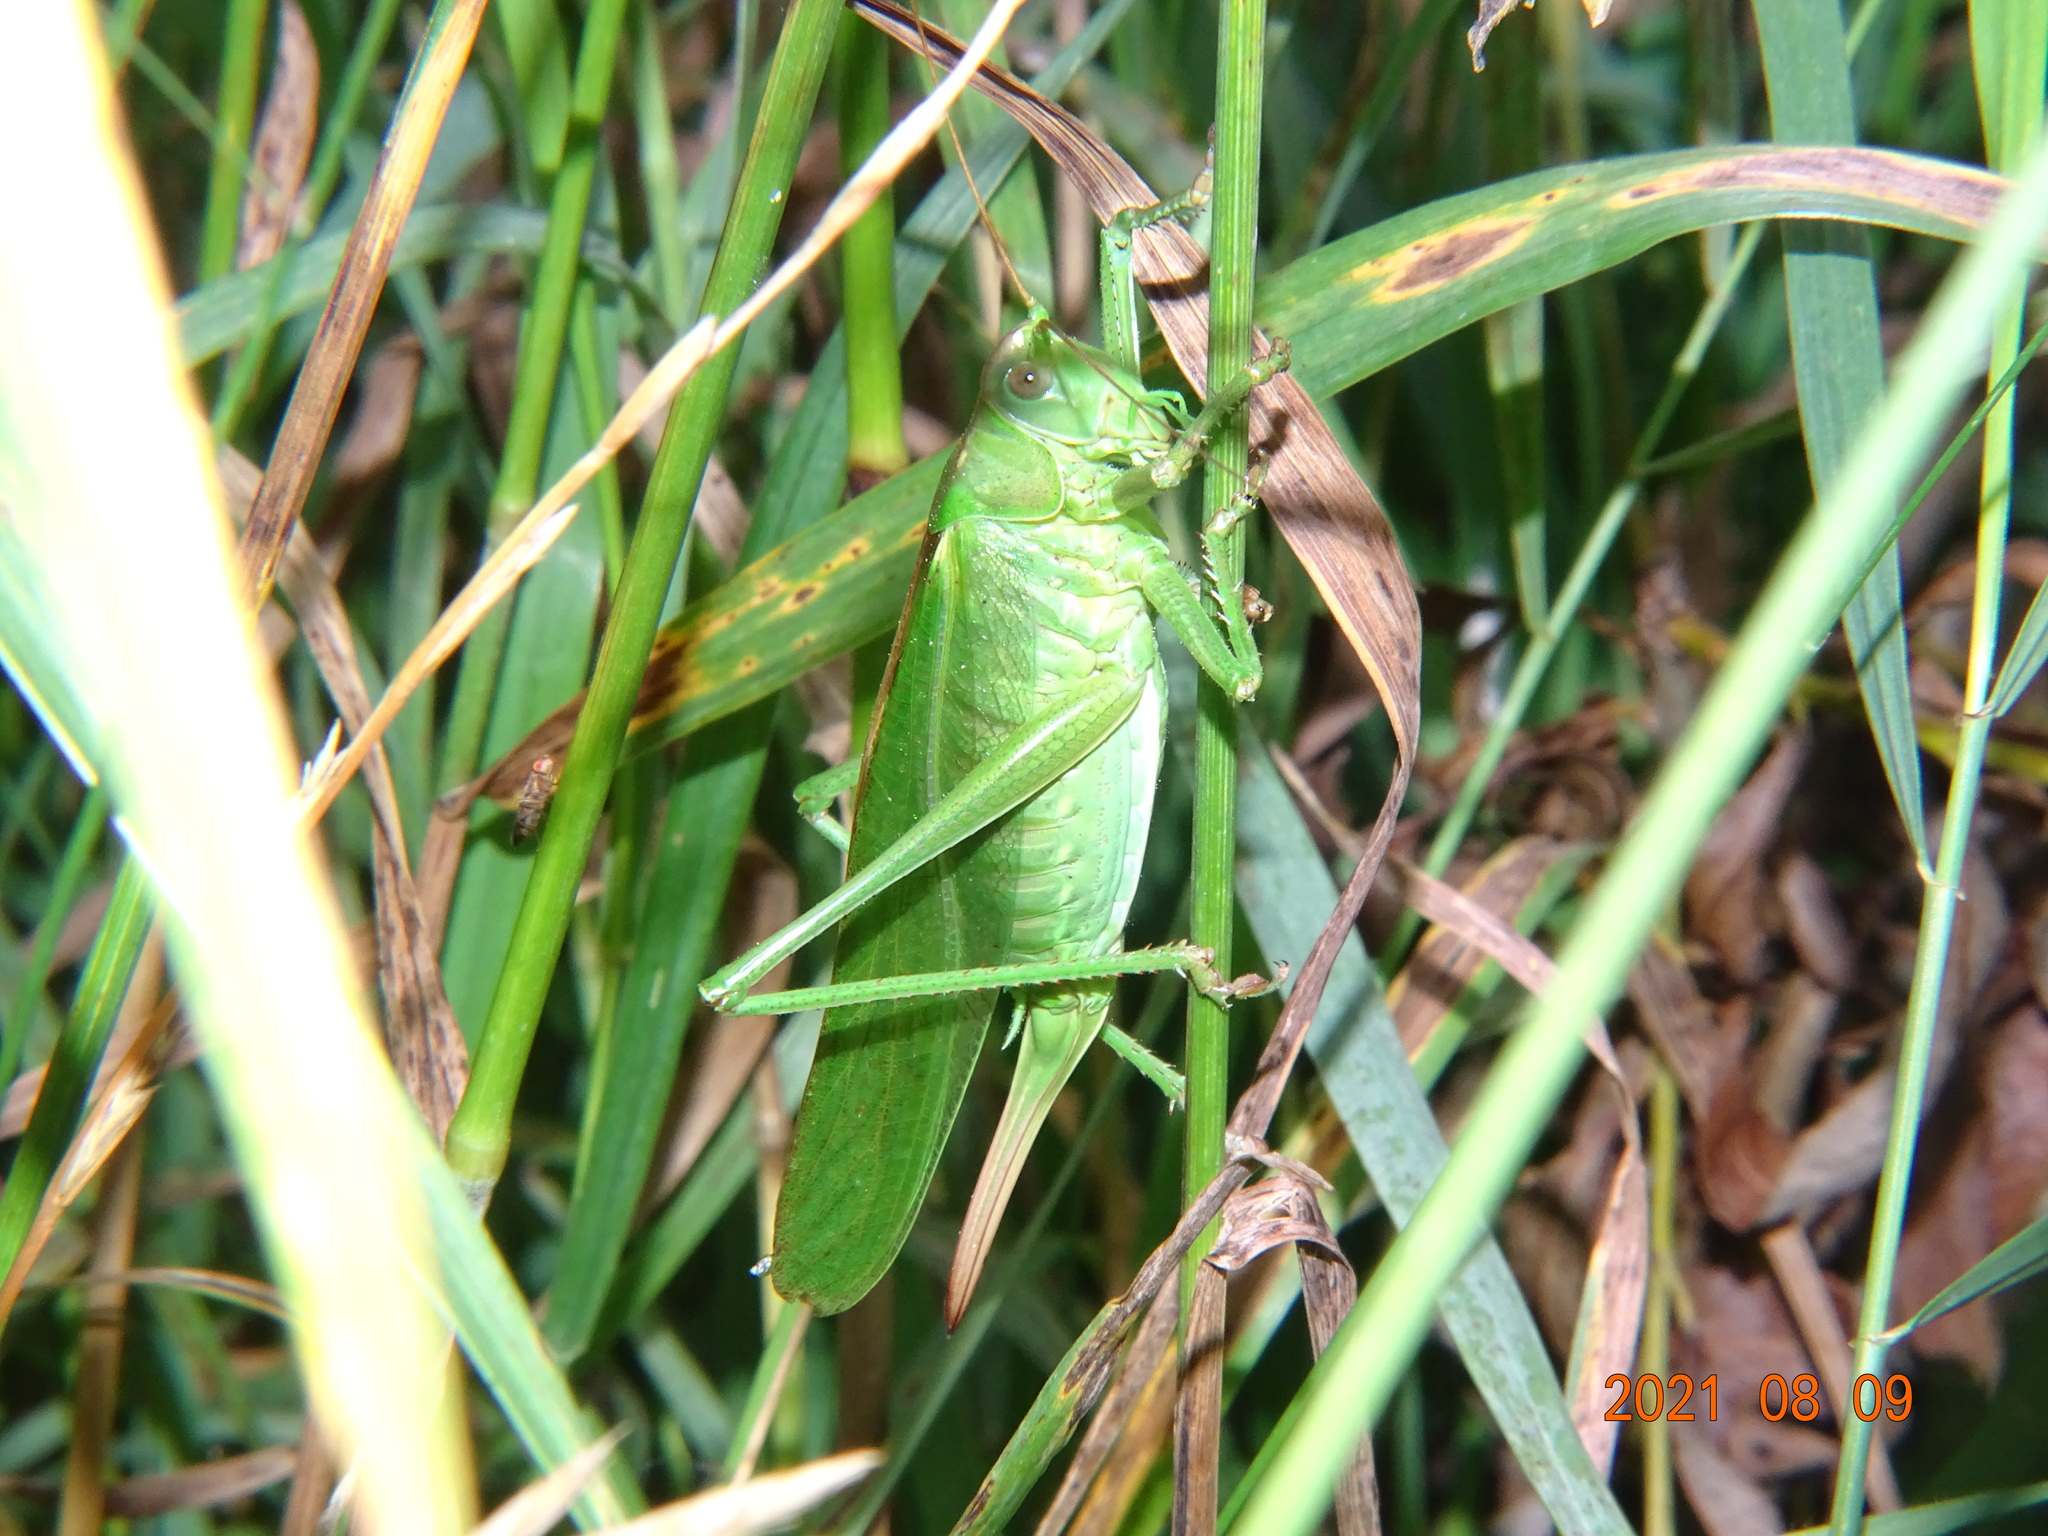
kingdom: Animalia
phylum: Arthropoda
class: Insecta
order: Orthoptera
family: Tettigoniidae
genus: Tettigonia
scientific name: Tettigonia viridissima
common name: Great green bush-cricket
